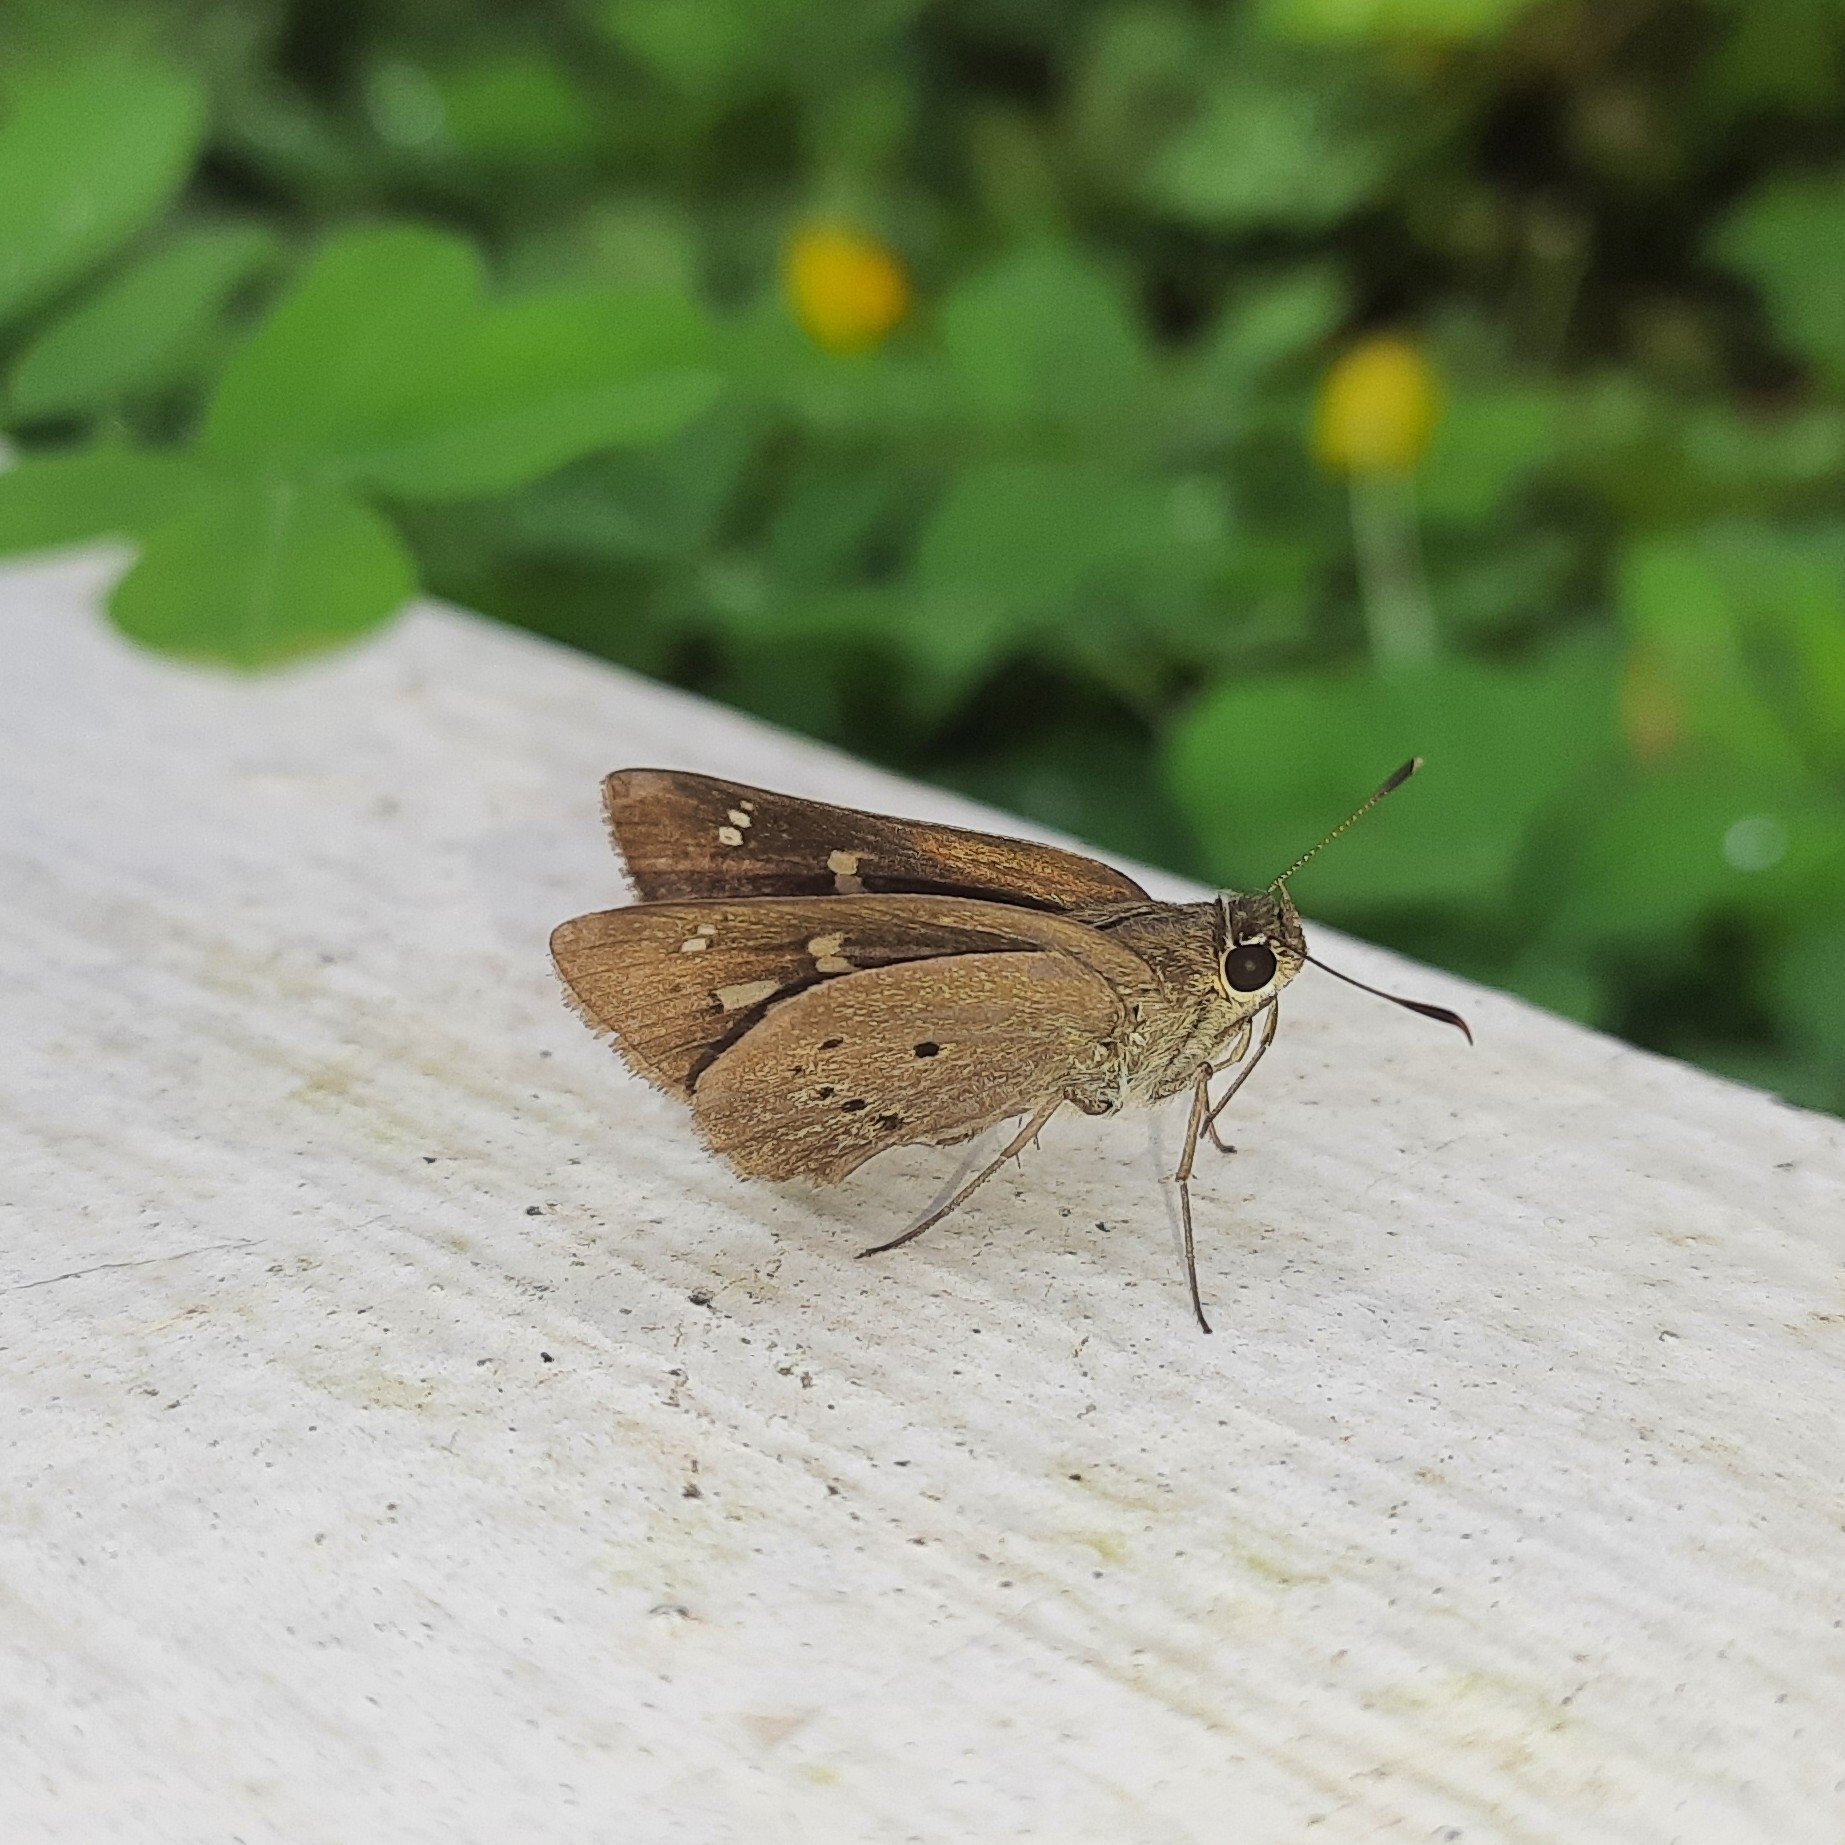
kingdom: Animalia
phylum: Arthropoda
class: Insecta
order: Lepidoptera
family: Hesperiidae
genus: Suastus
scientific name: Suastus gremius
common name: Indian palm bob
